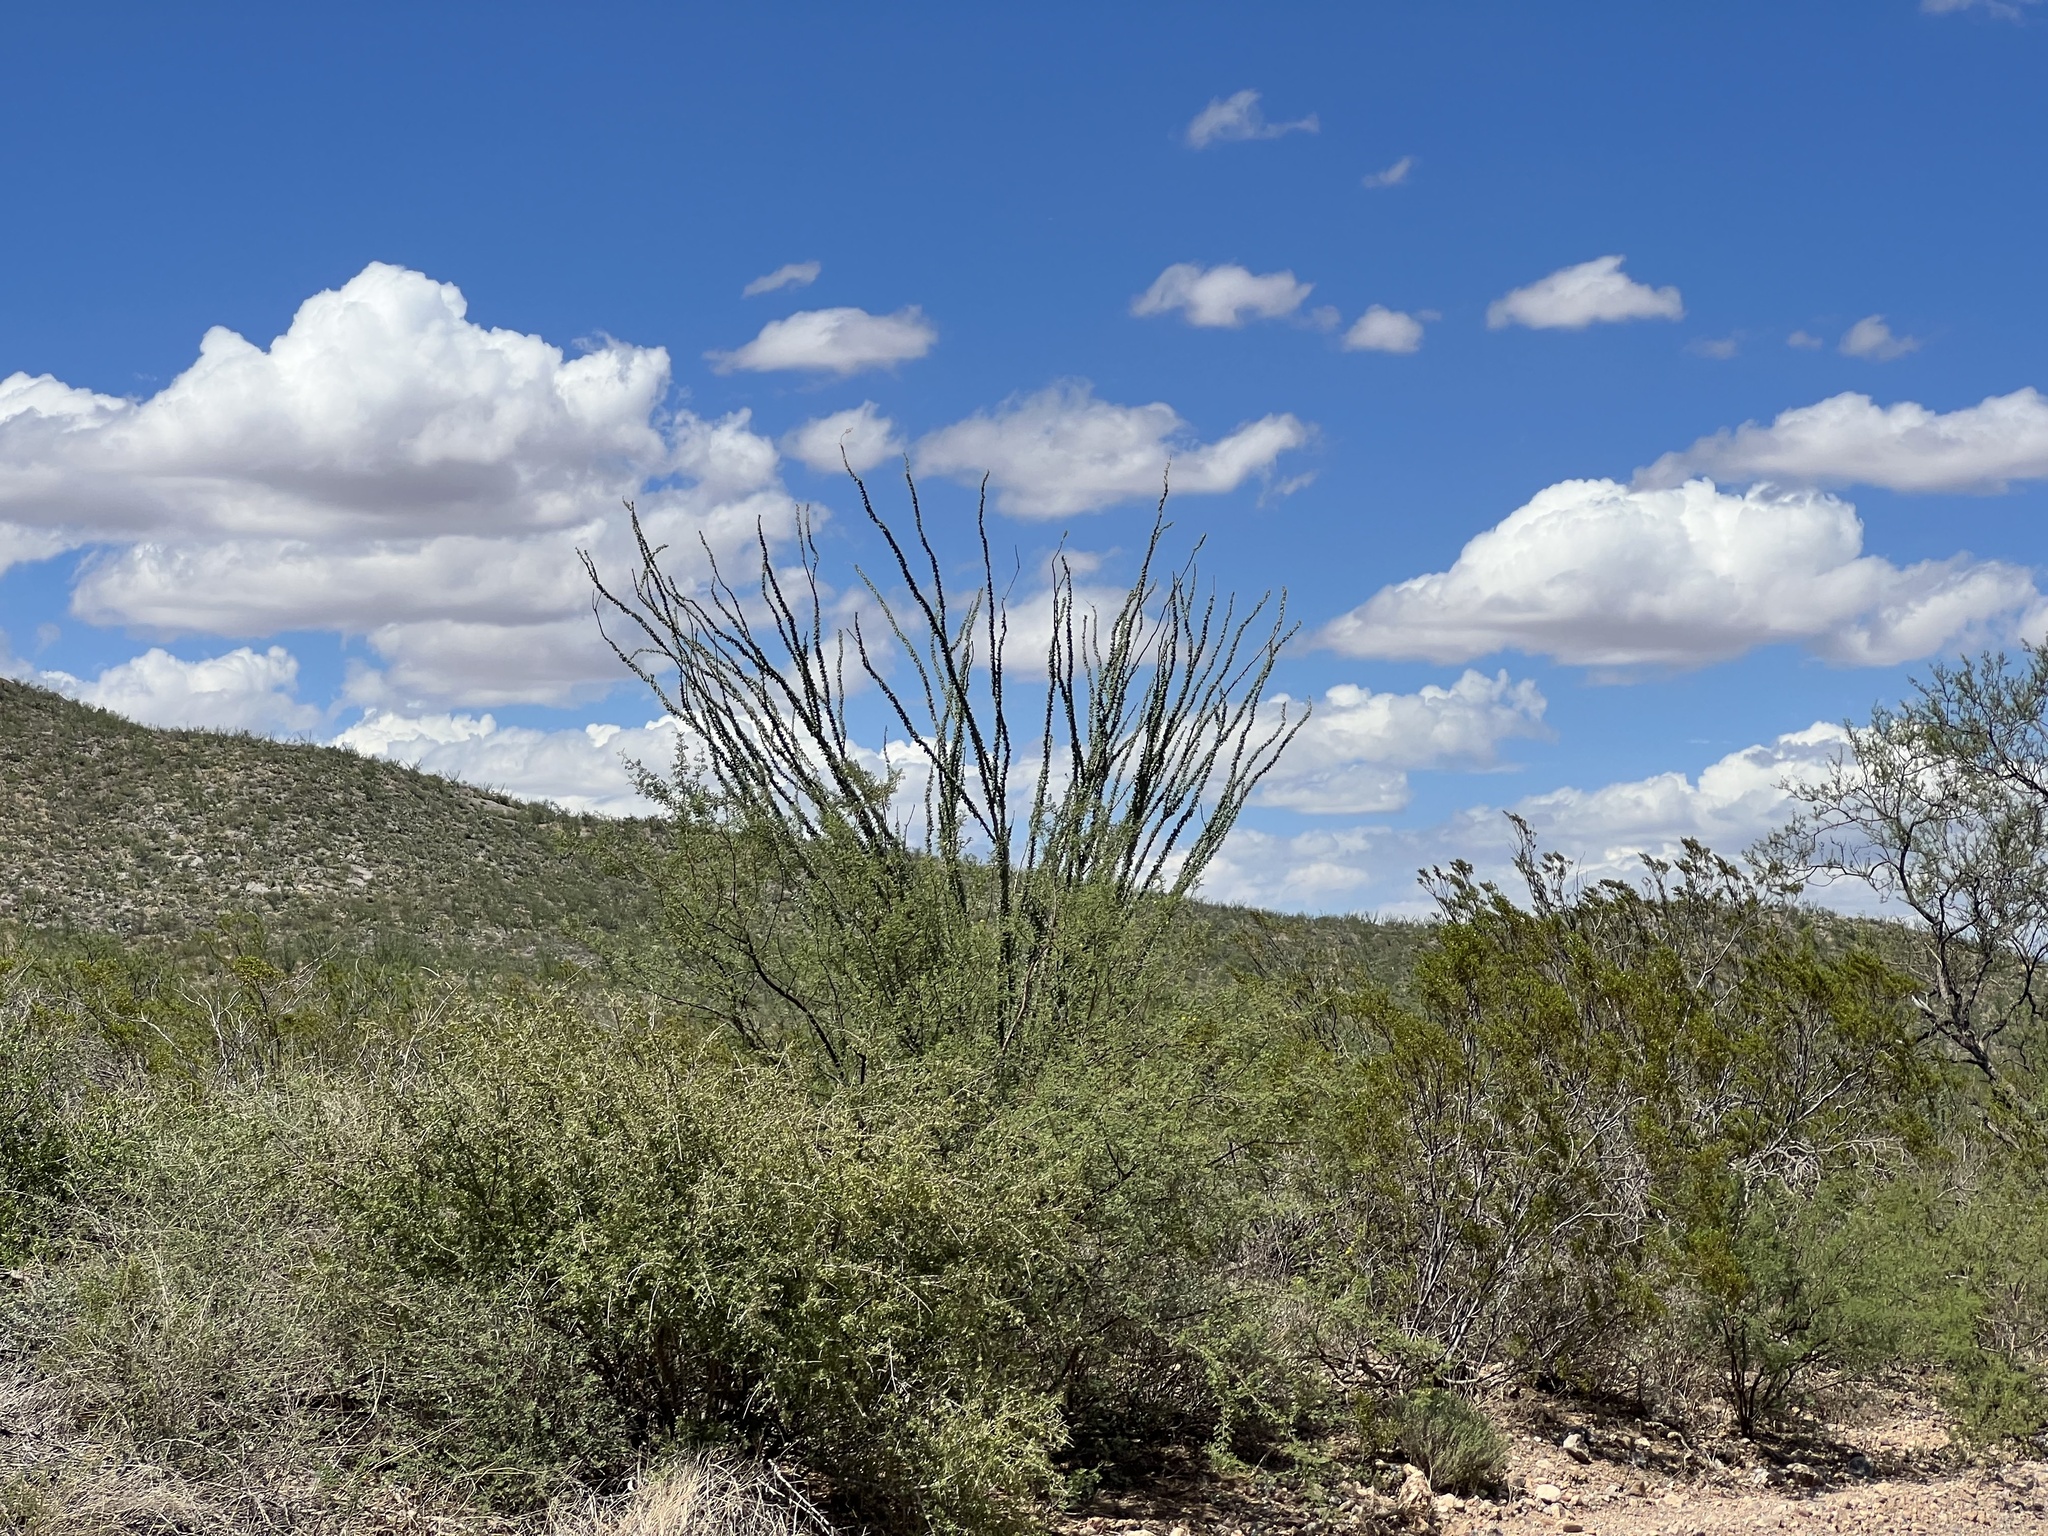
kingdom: Plantae
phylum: Tracheophyta
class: Magnoliopsida
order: Ericales
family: Fouquieriaceae
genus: Fouquieria
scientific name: Fouquieria splendens
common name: Vine-cactus
